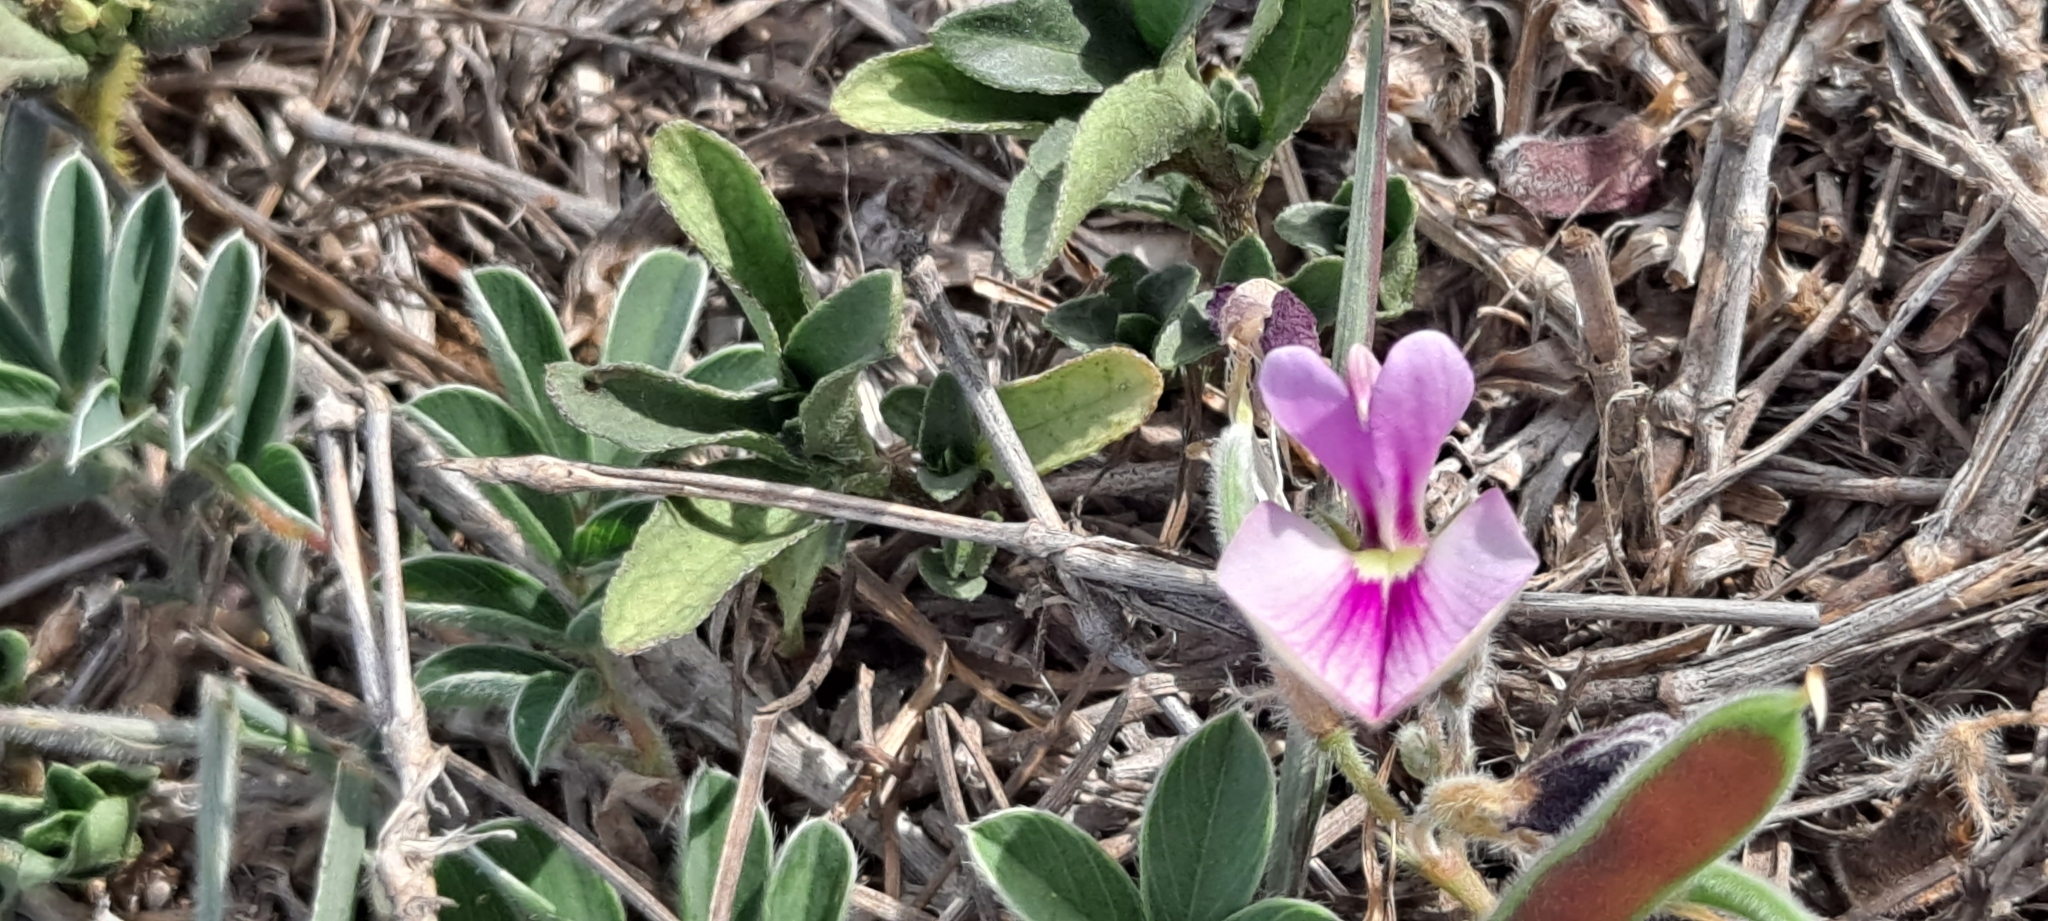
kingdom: Plantae
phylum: Tracheophyta
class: Magnoliopsida
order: Fabales
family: Fabaceae
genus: Tephrosia
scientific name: Tephrosia obovata
